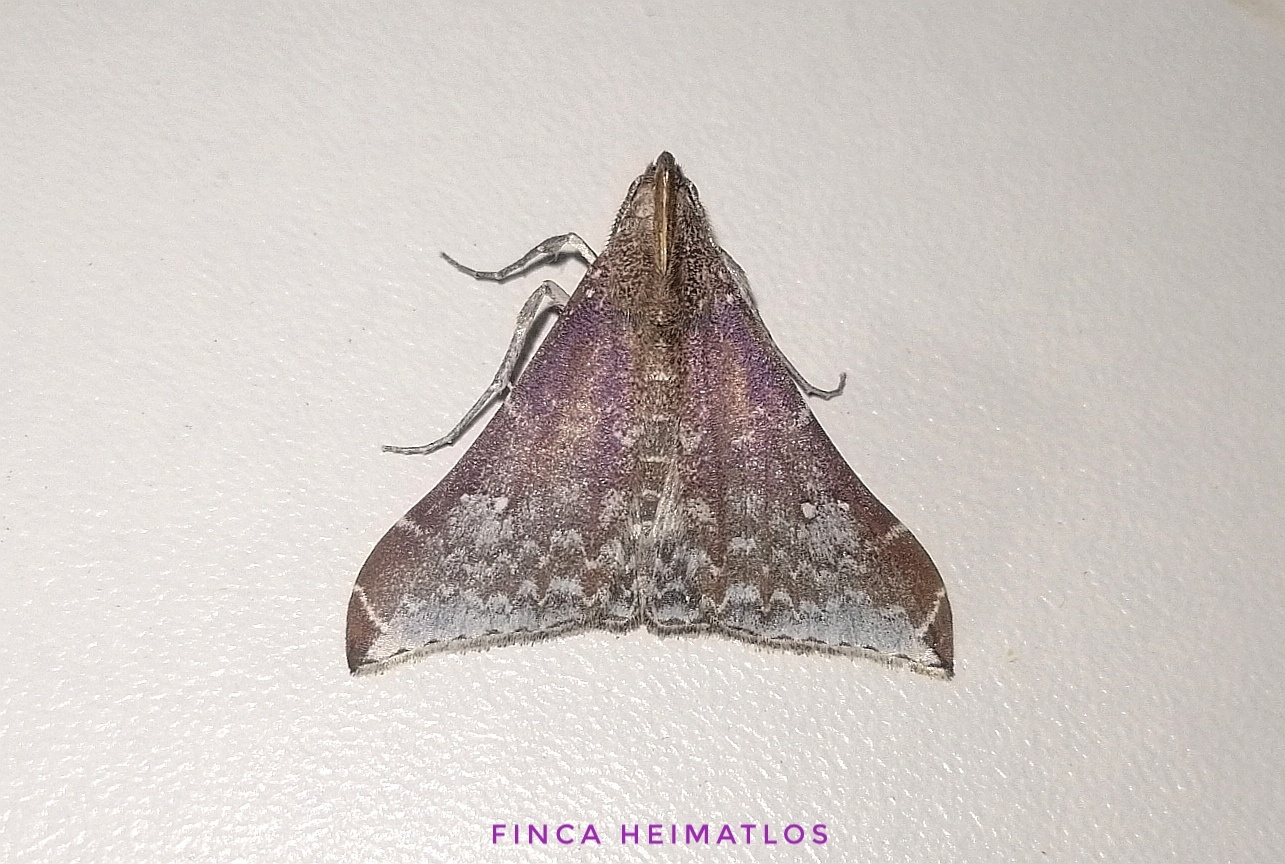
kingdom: Animalia
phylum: Arthropoda
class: Insecta
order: Lepidoptera
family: Erebidae
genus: Neopalthis
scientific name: Neopalthis madates
